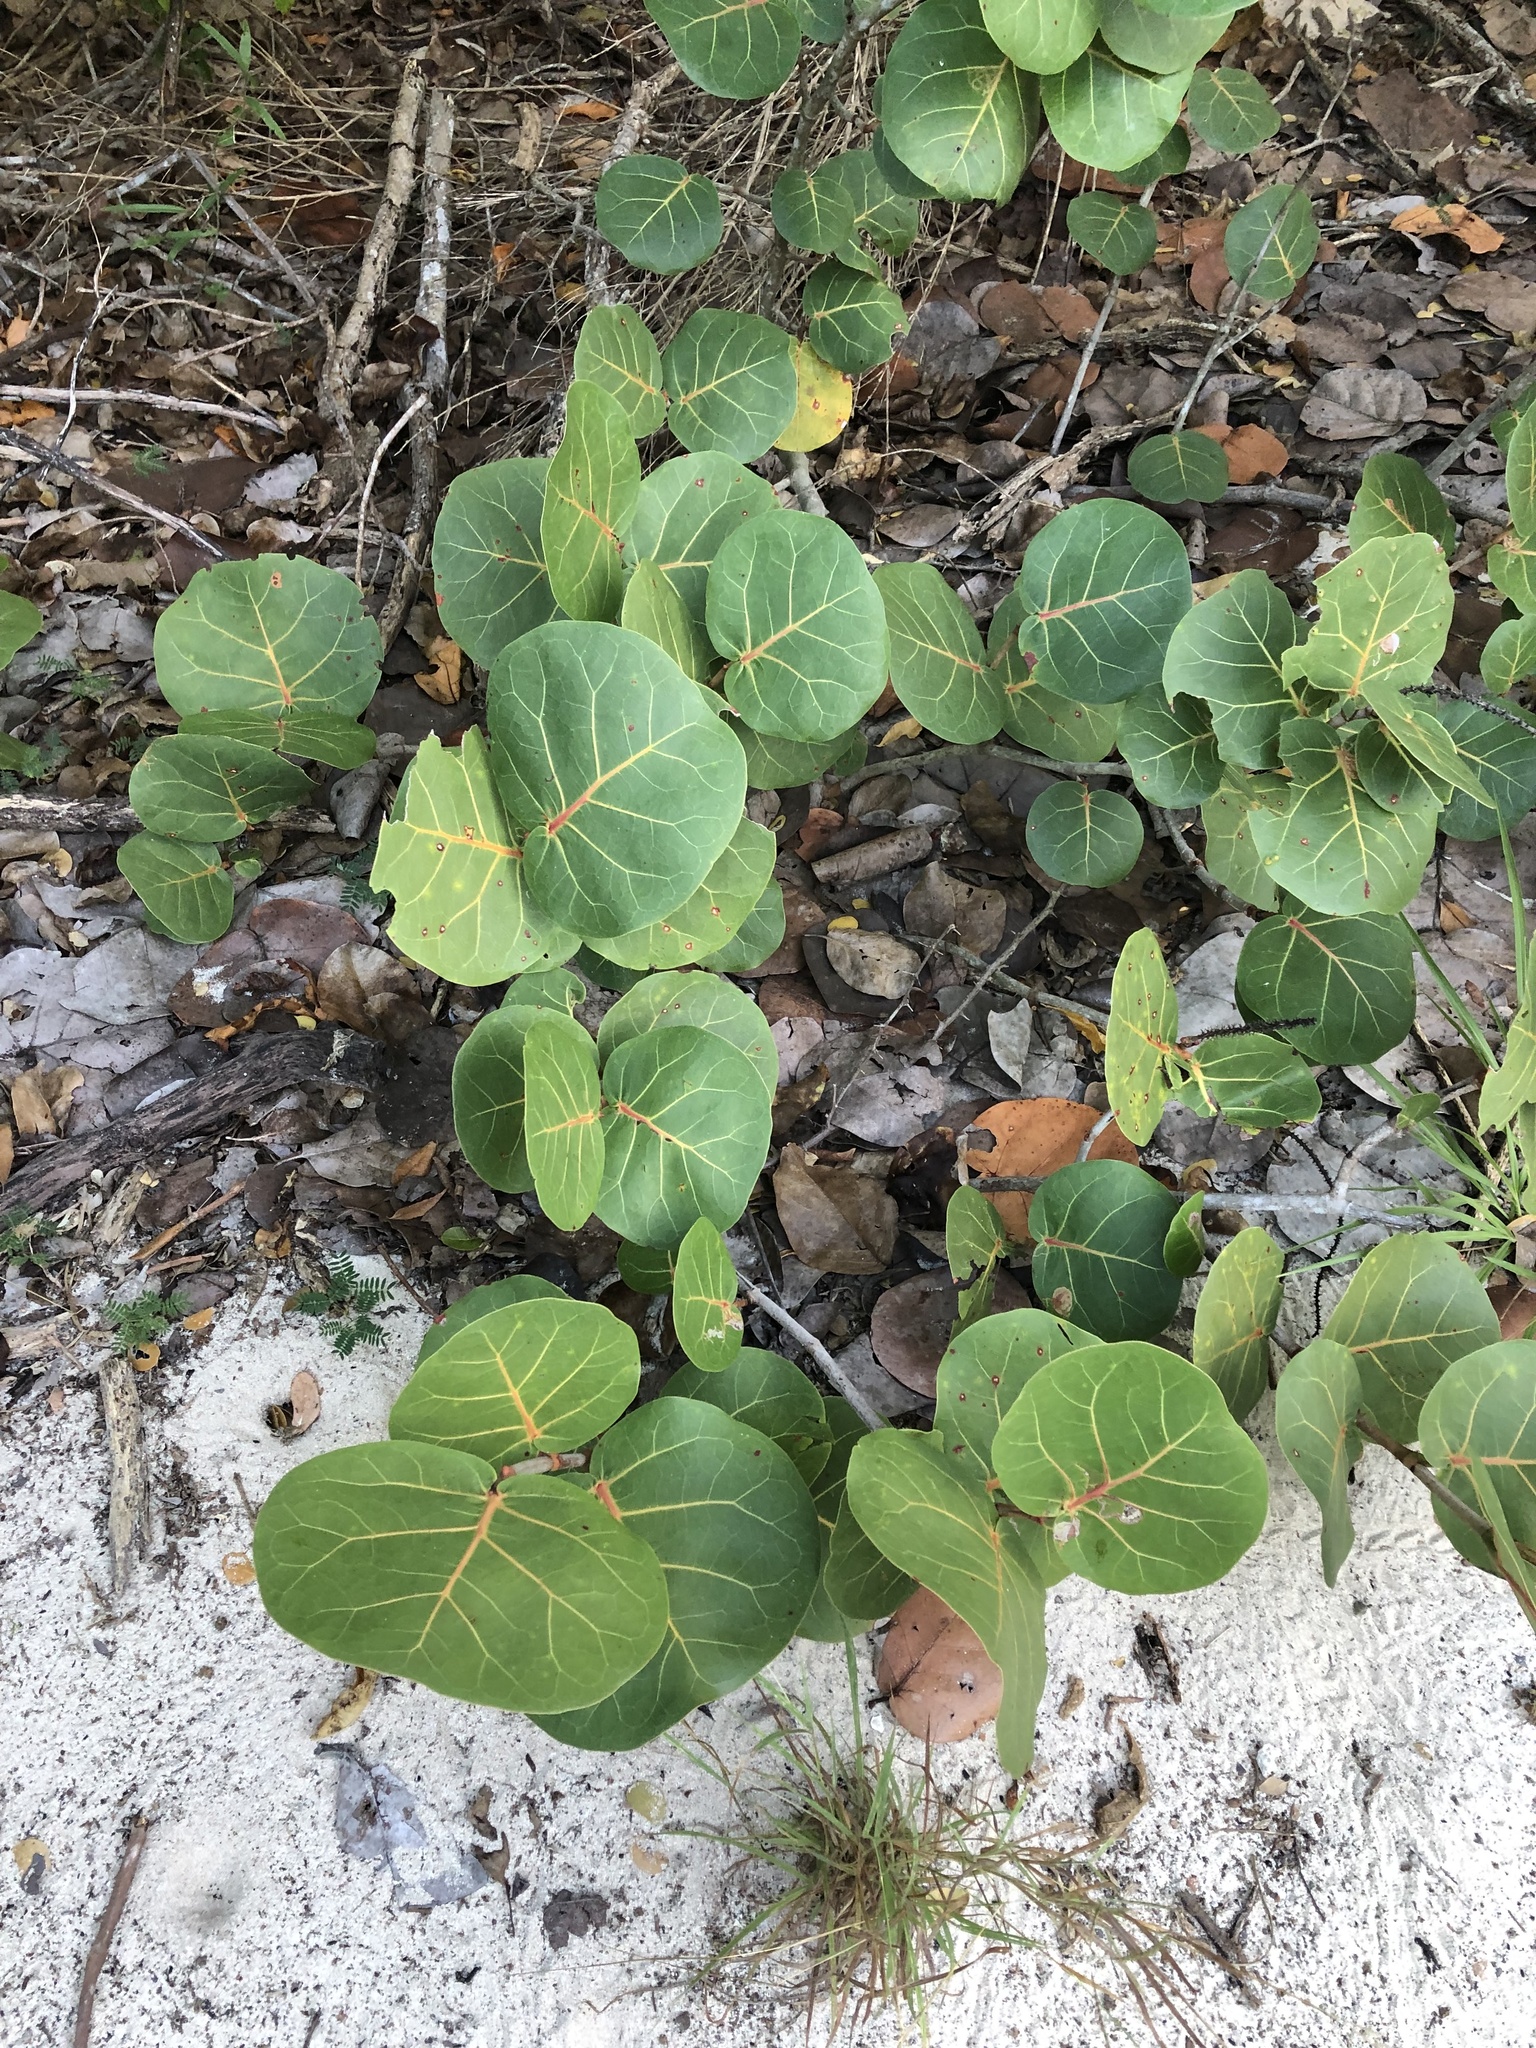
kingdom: Plantae
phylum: Tracheophyta
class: Magnoliopsida
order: Caryophyllales
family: Polygonaceae
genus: Coccoloba
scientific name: Coccoloba uvifera
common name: Seagrape
